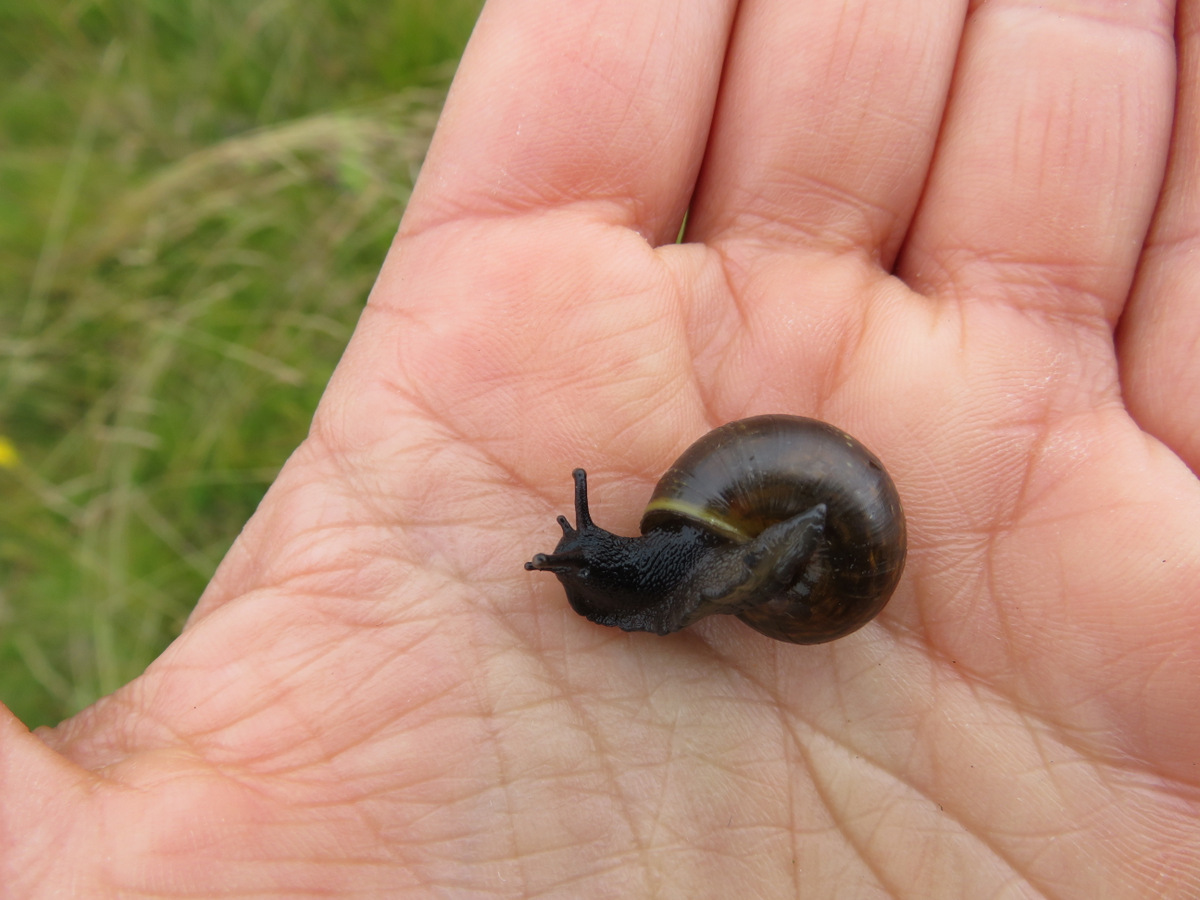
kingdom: Animalia
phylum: Mollusca
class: Gastropoda
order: Stylommatophora
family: Helicidae
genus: Arianta
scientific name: Arianta arbustorum
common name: Copse snail
